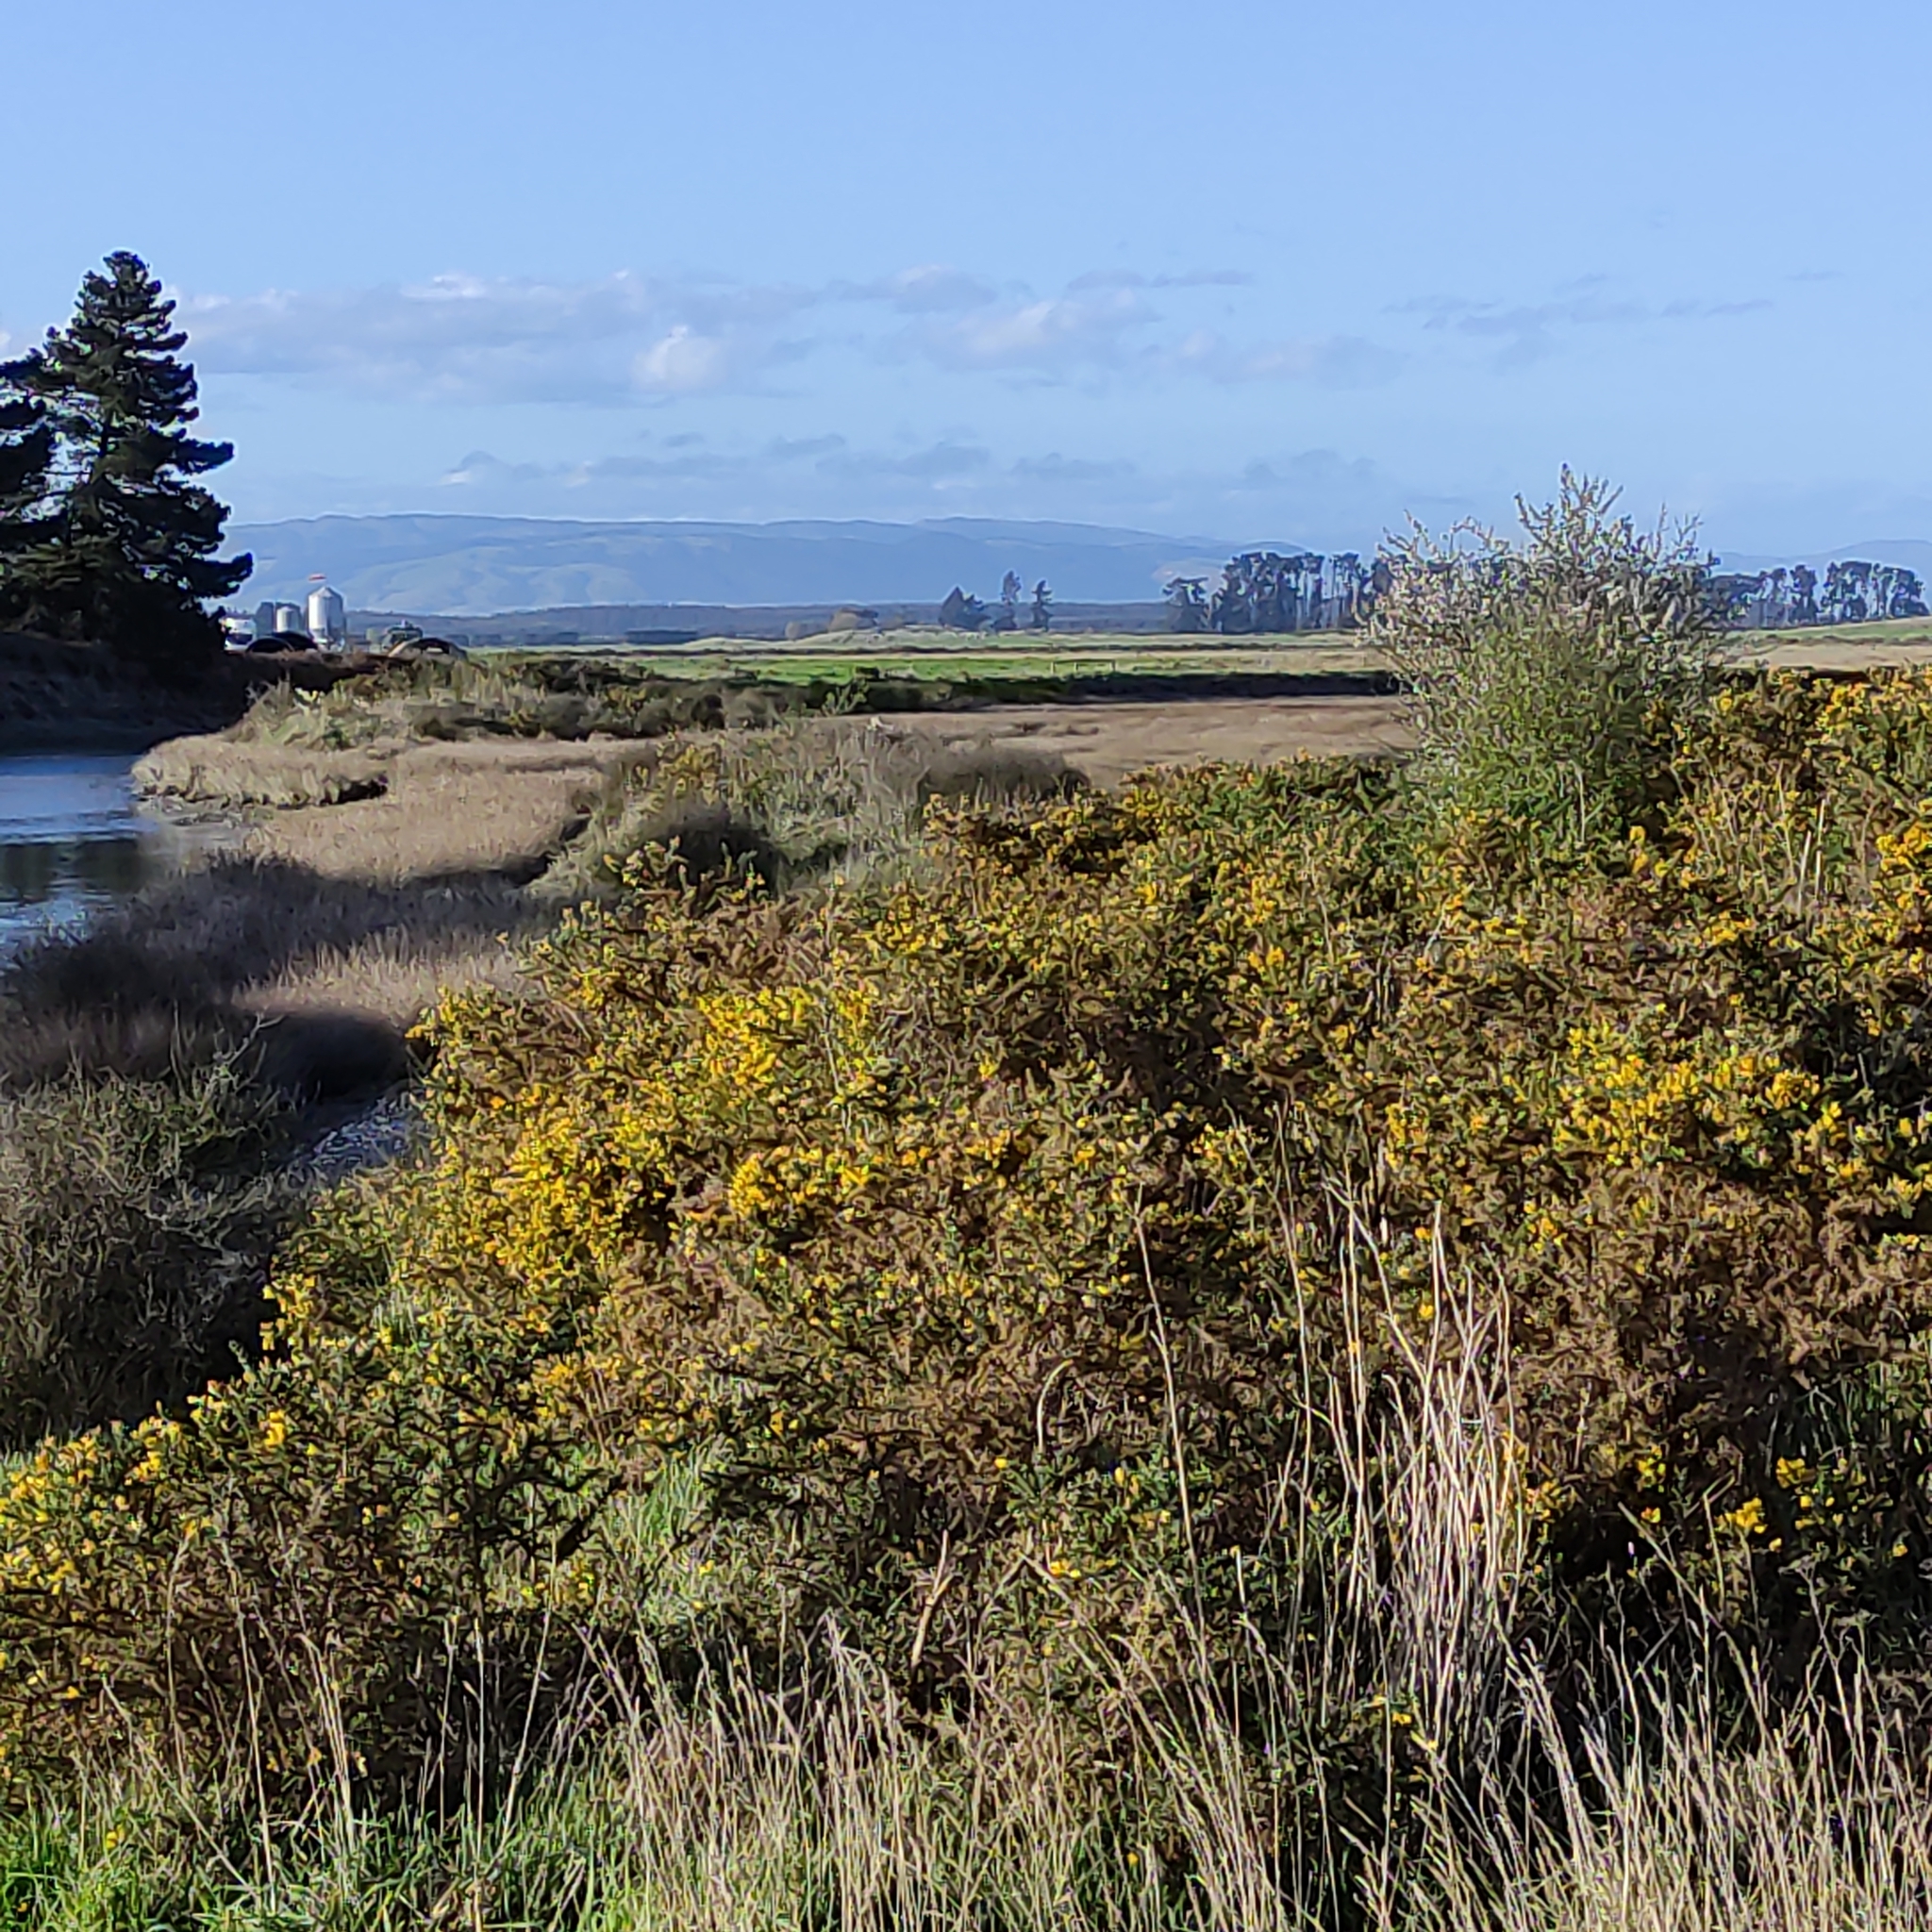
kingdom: Plantae
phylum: Tracheophyta
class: Magnoliopsida
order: Fabales
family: Fabaceae
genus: Ulex
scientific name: Ulex europaeus
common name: Common gorse
